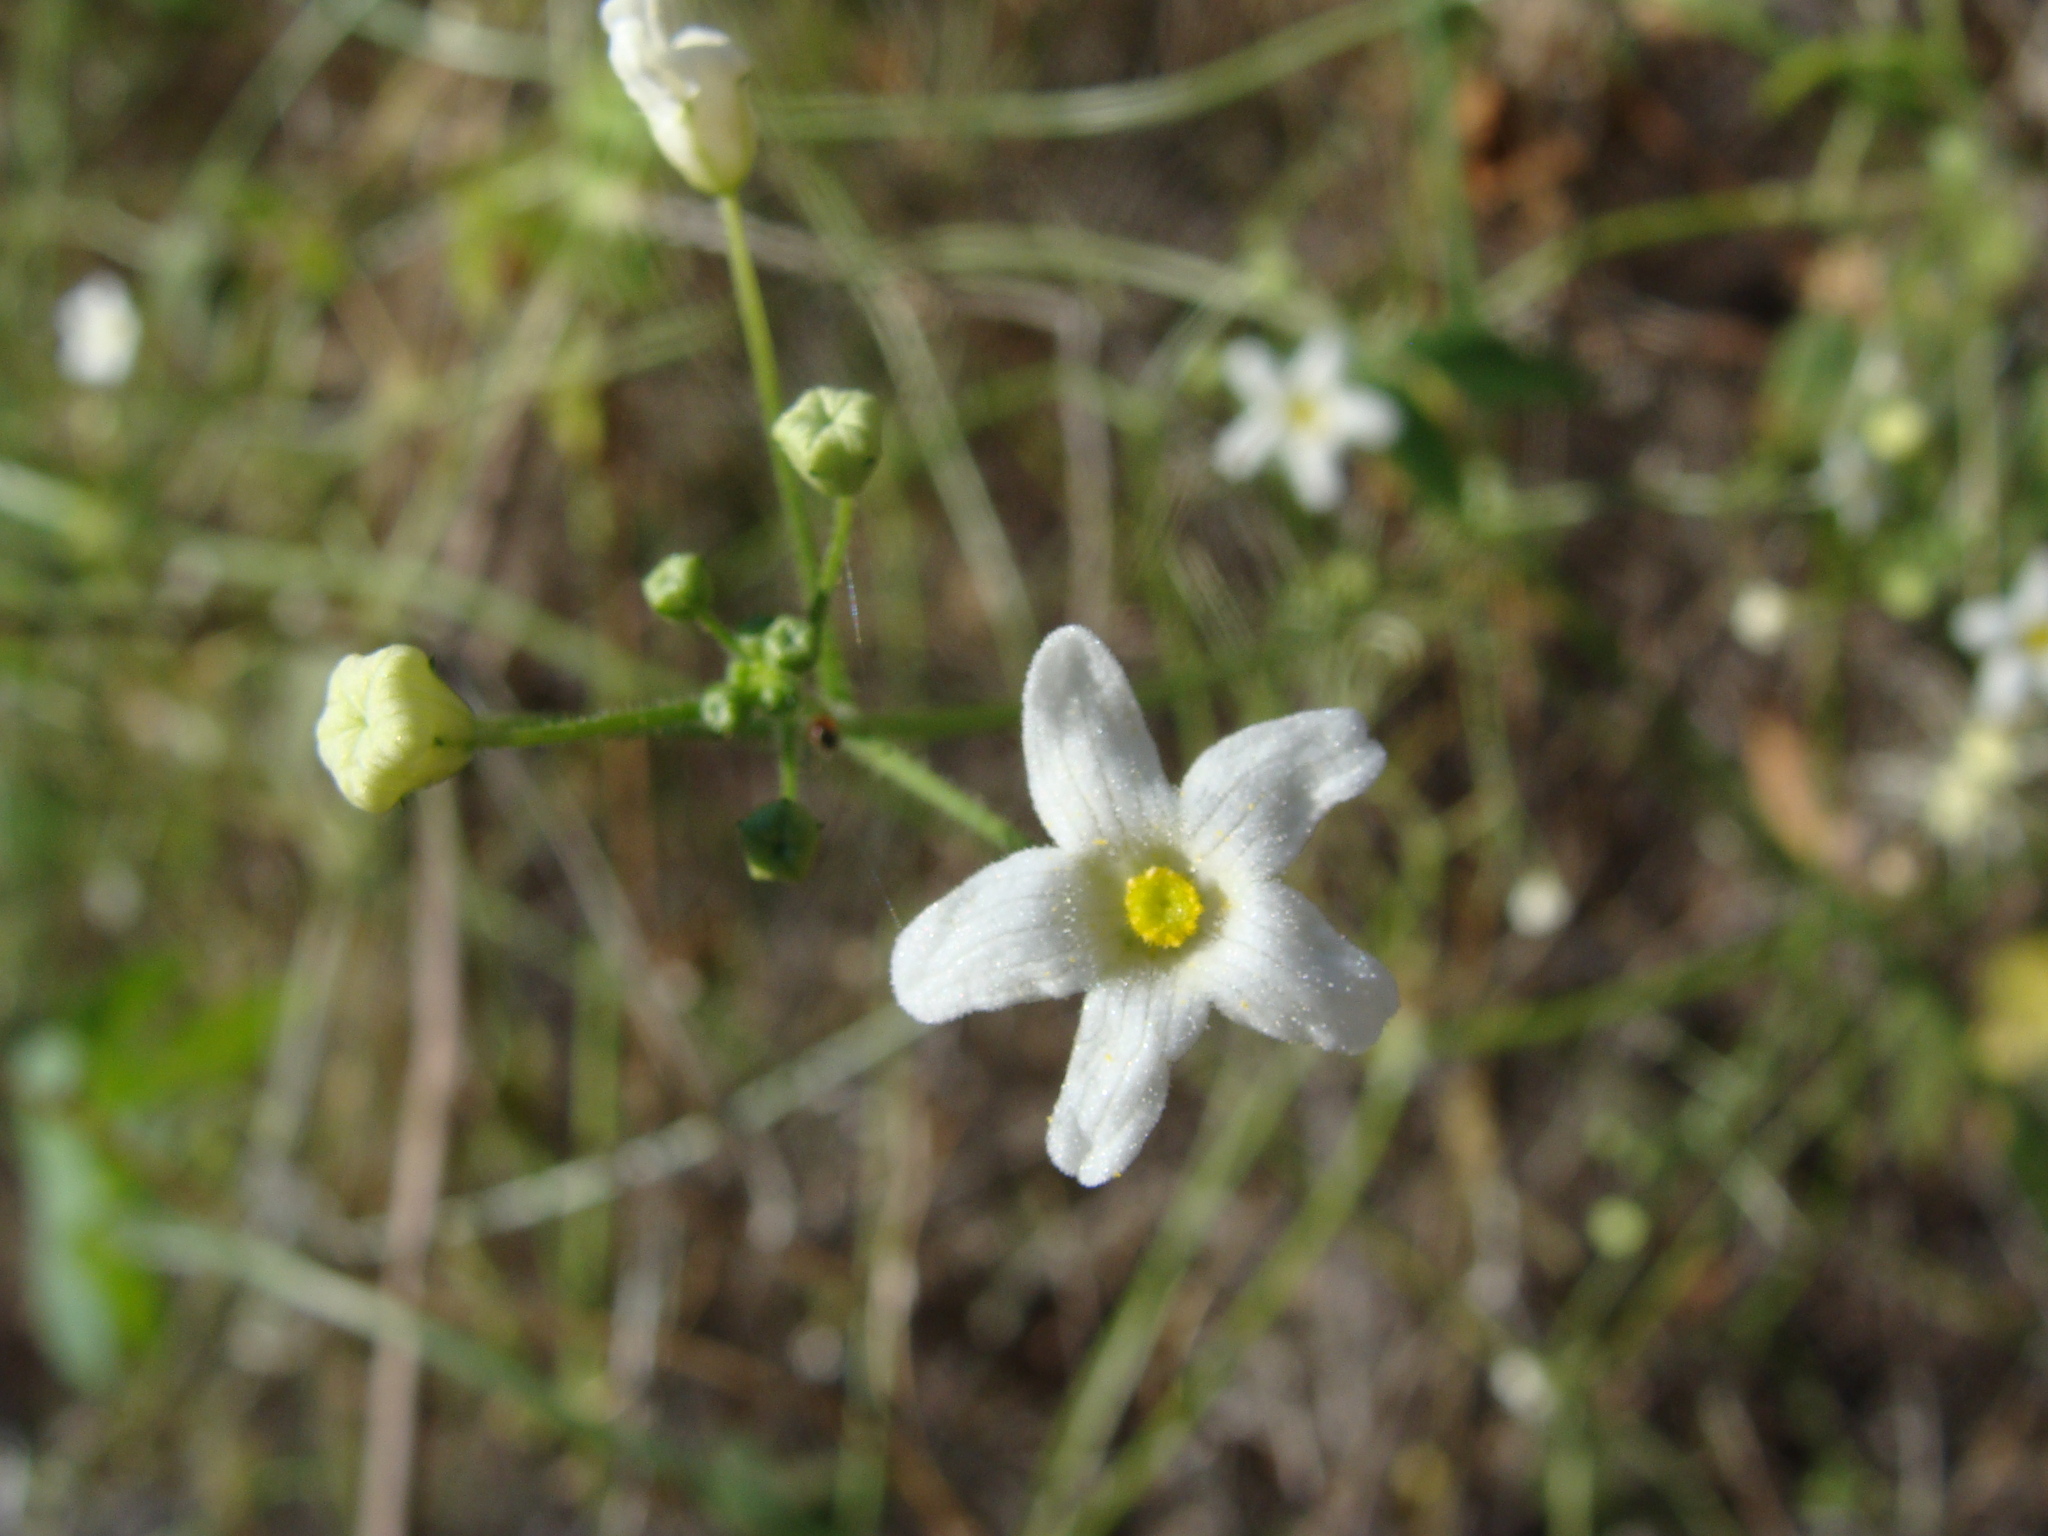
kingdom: Plantae
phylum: Tracheophyta
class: Magnoliopsida
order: Cucurbitales
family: Cucurbitaceae
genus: Echinopepon
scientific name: Echinopepon minimus
